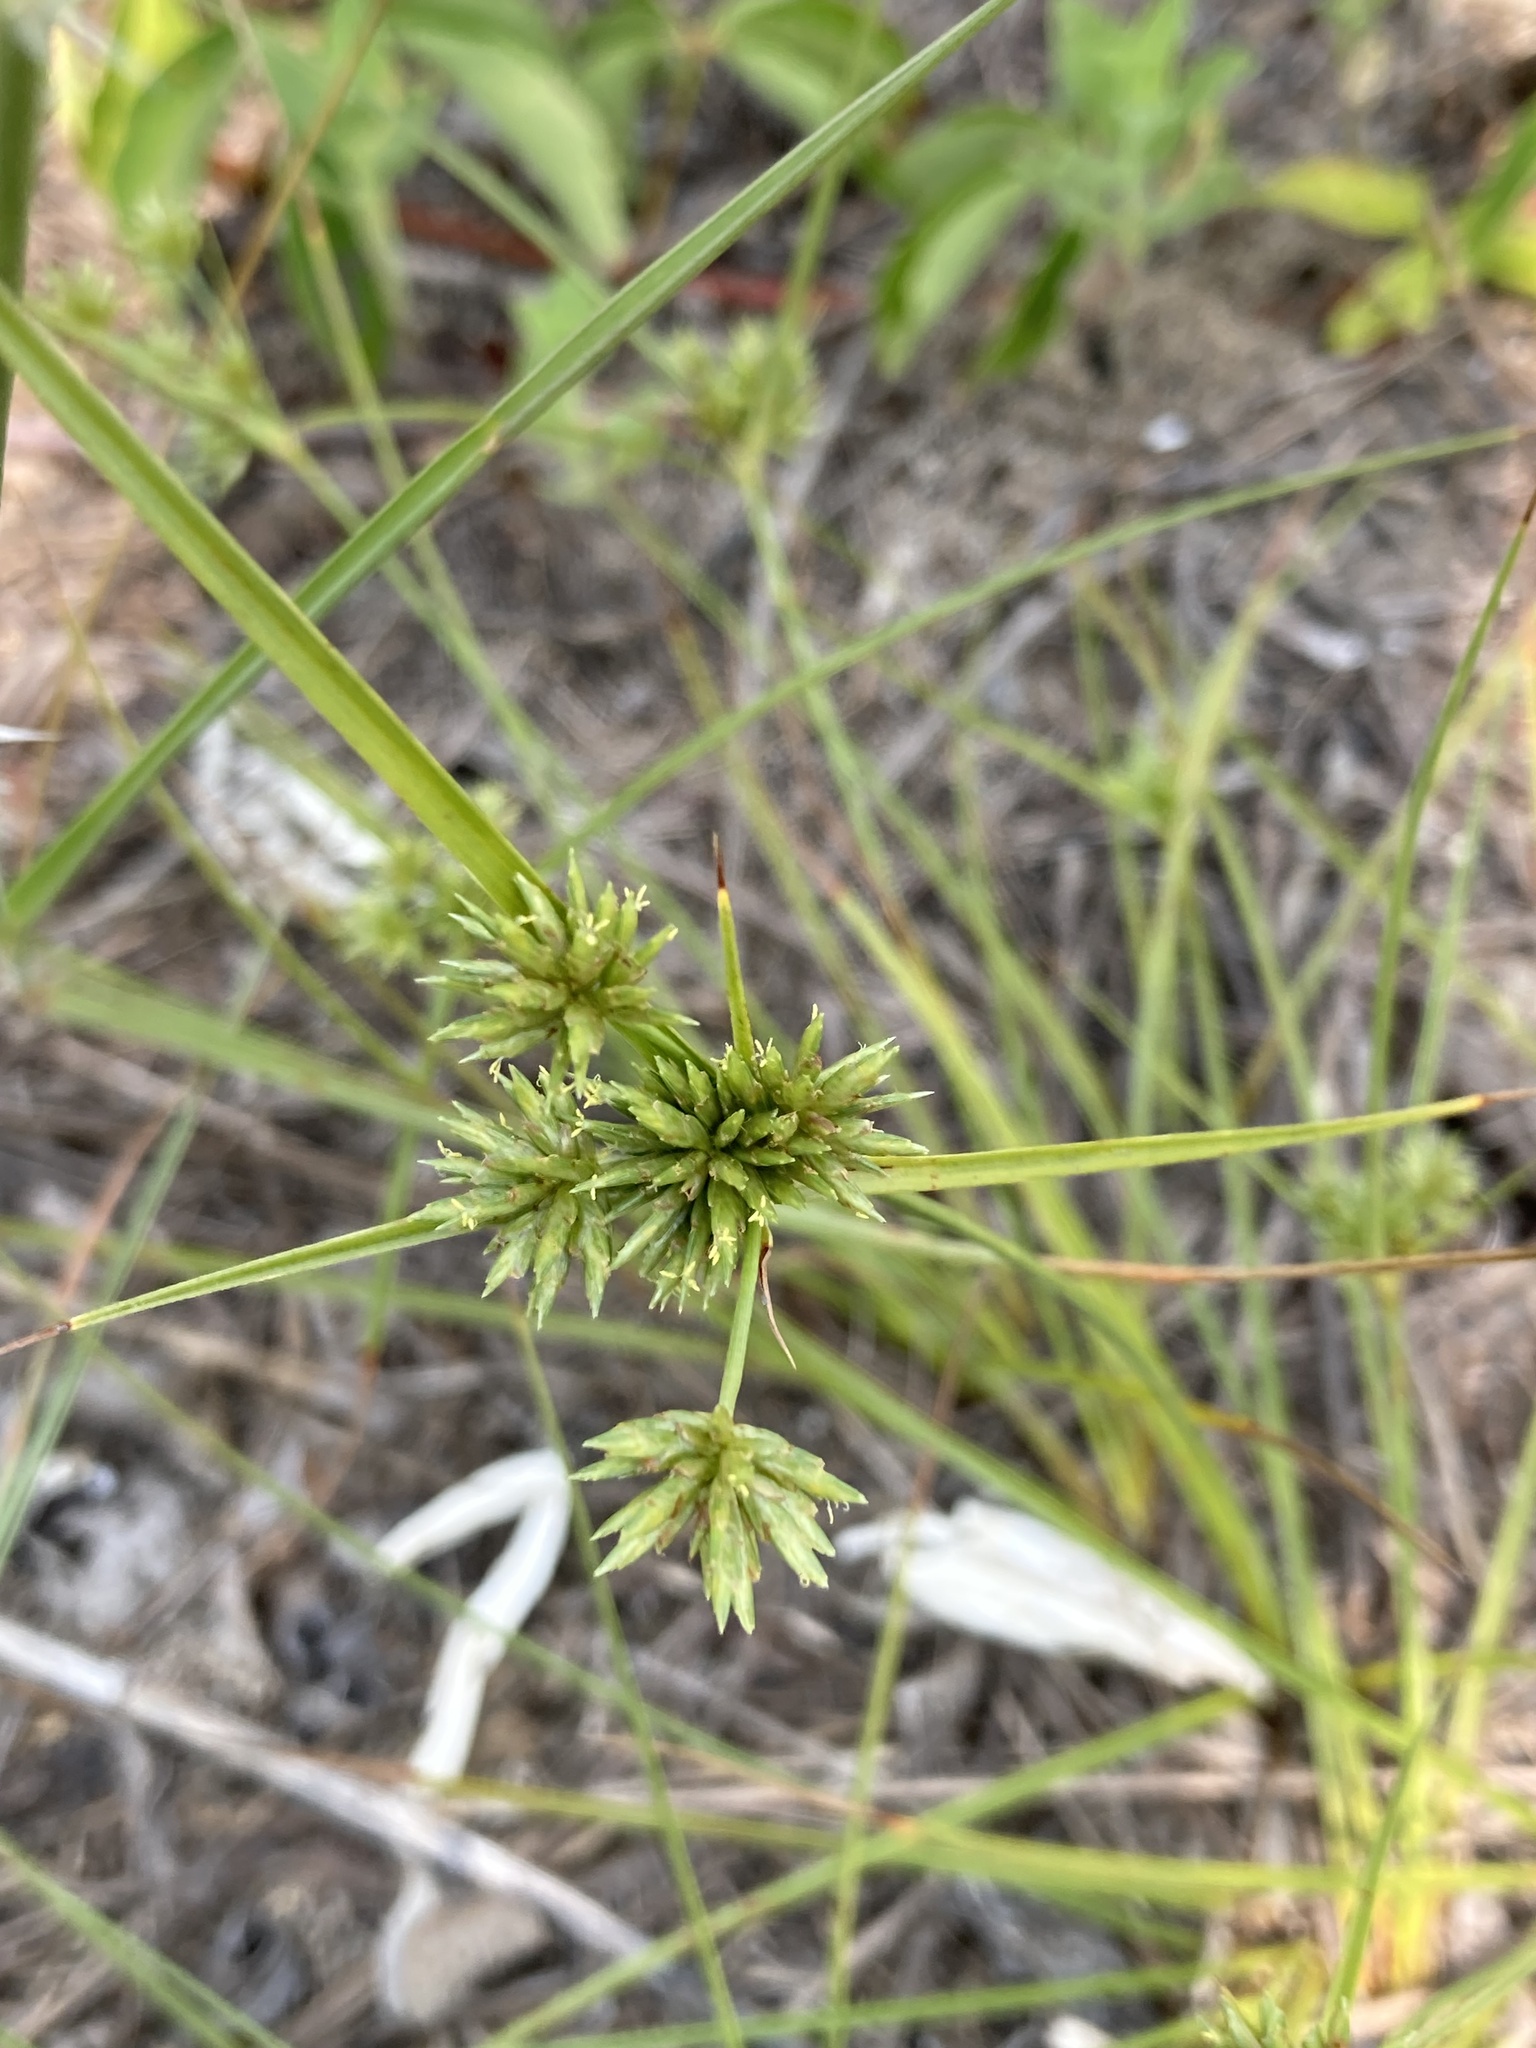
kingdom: Plantae
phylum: Tracheophyta
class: Liliopsida
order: Poales
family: Cyperaceae
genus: Cyperus
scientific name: Cyperus lupulinus
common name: Great plains flatsedge
